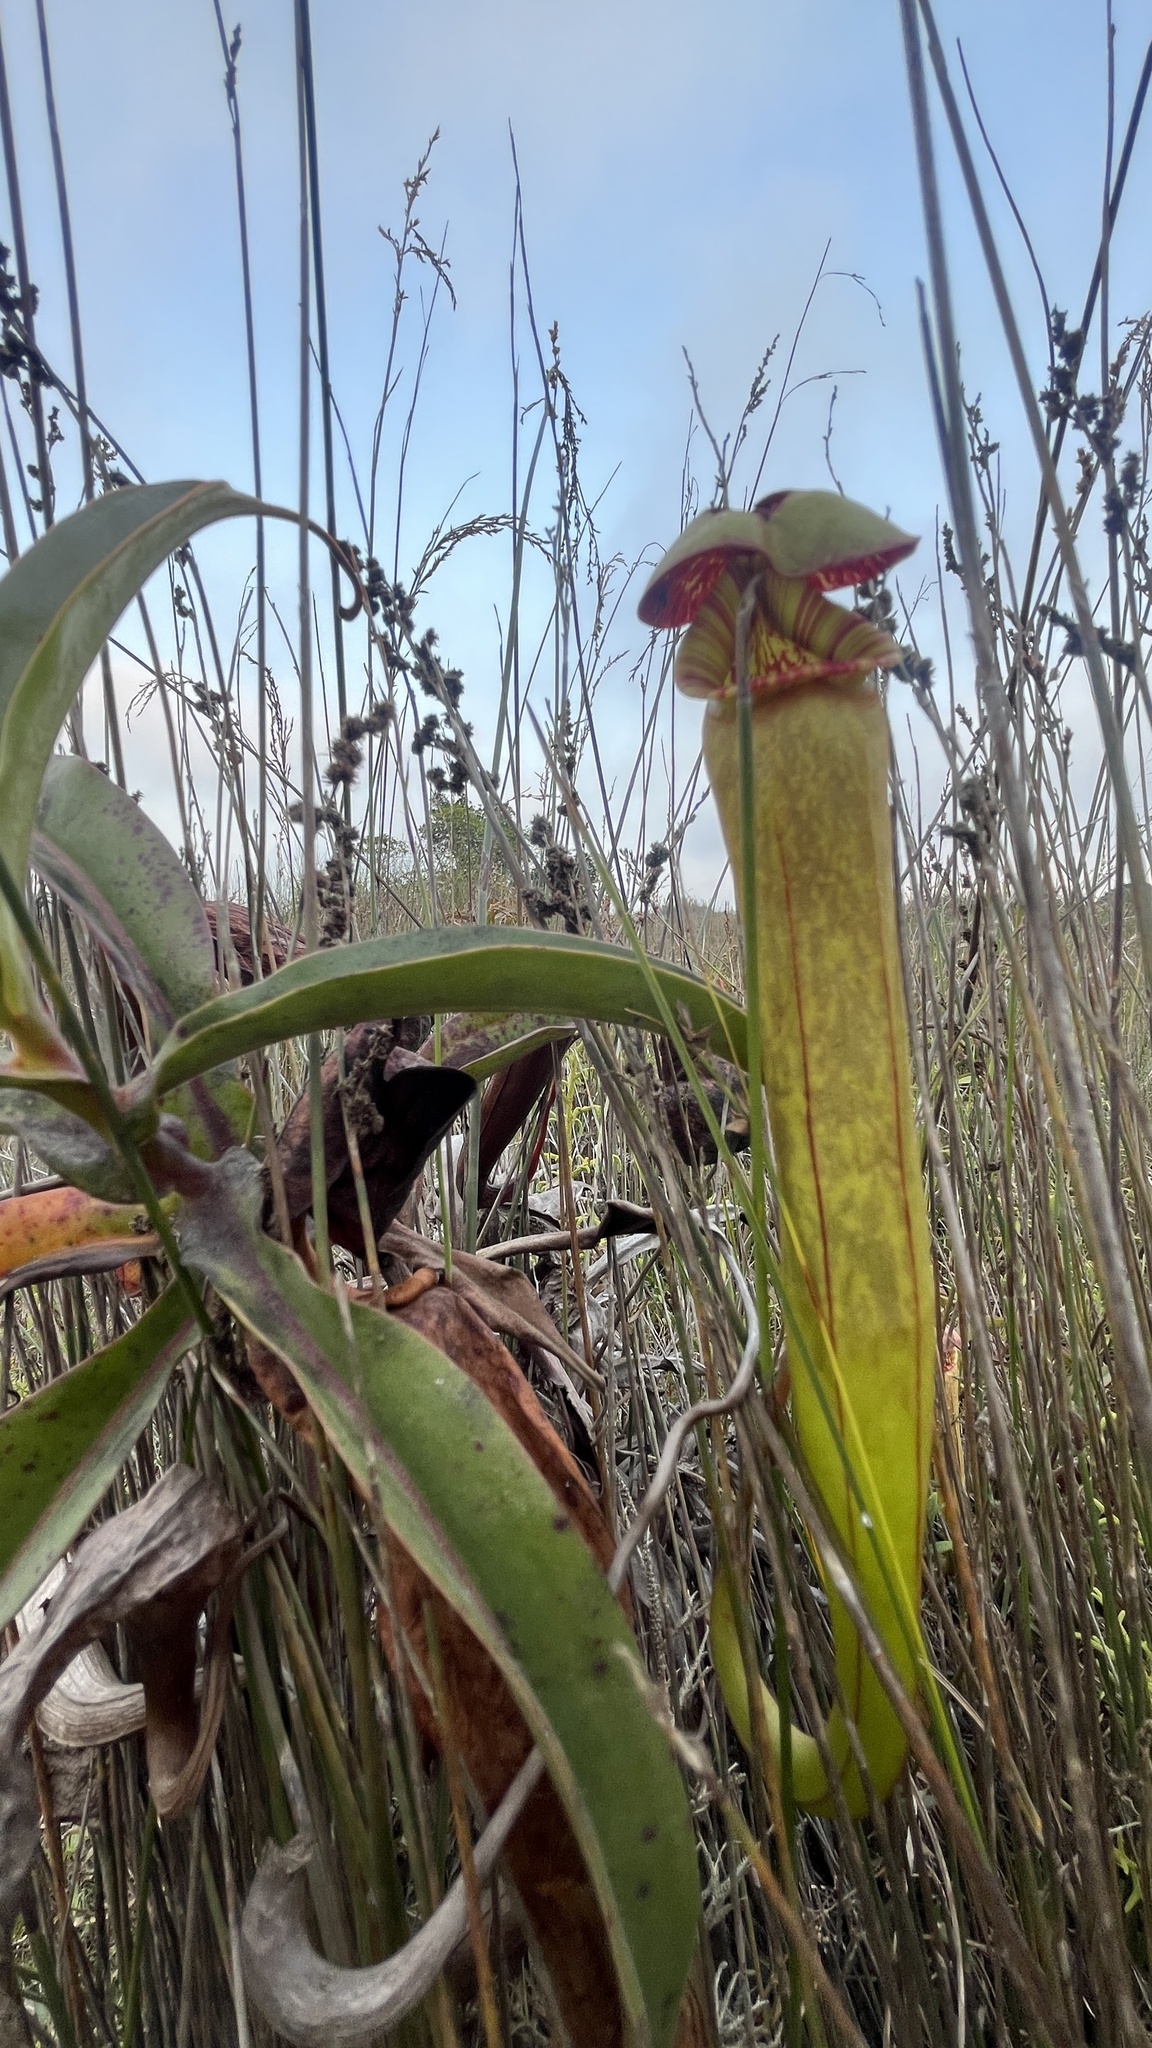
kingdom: Plantae
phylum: Tracheophyta
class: Magnoliopsida
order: Caryophyllales
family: Nepenthaceae
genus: Nepenthes
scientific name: Nepenthes bokorensis
